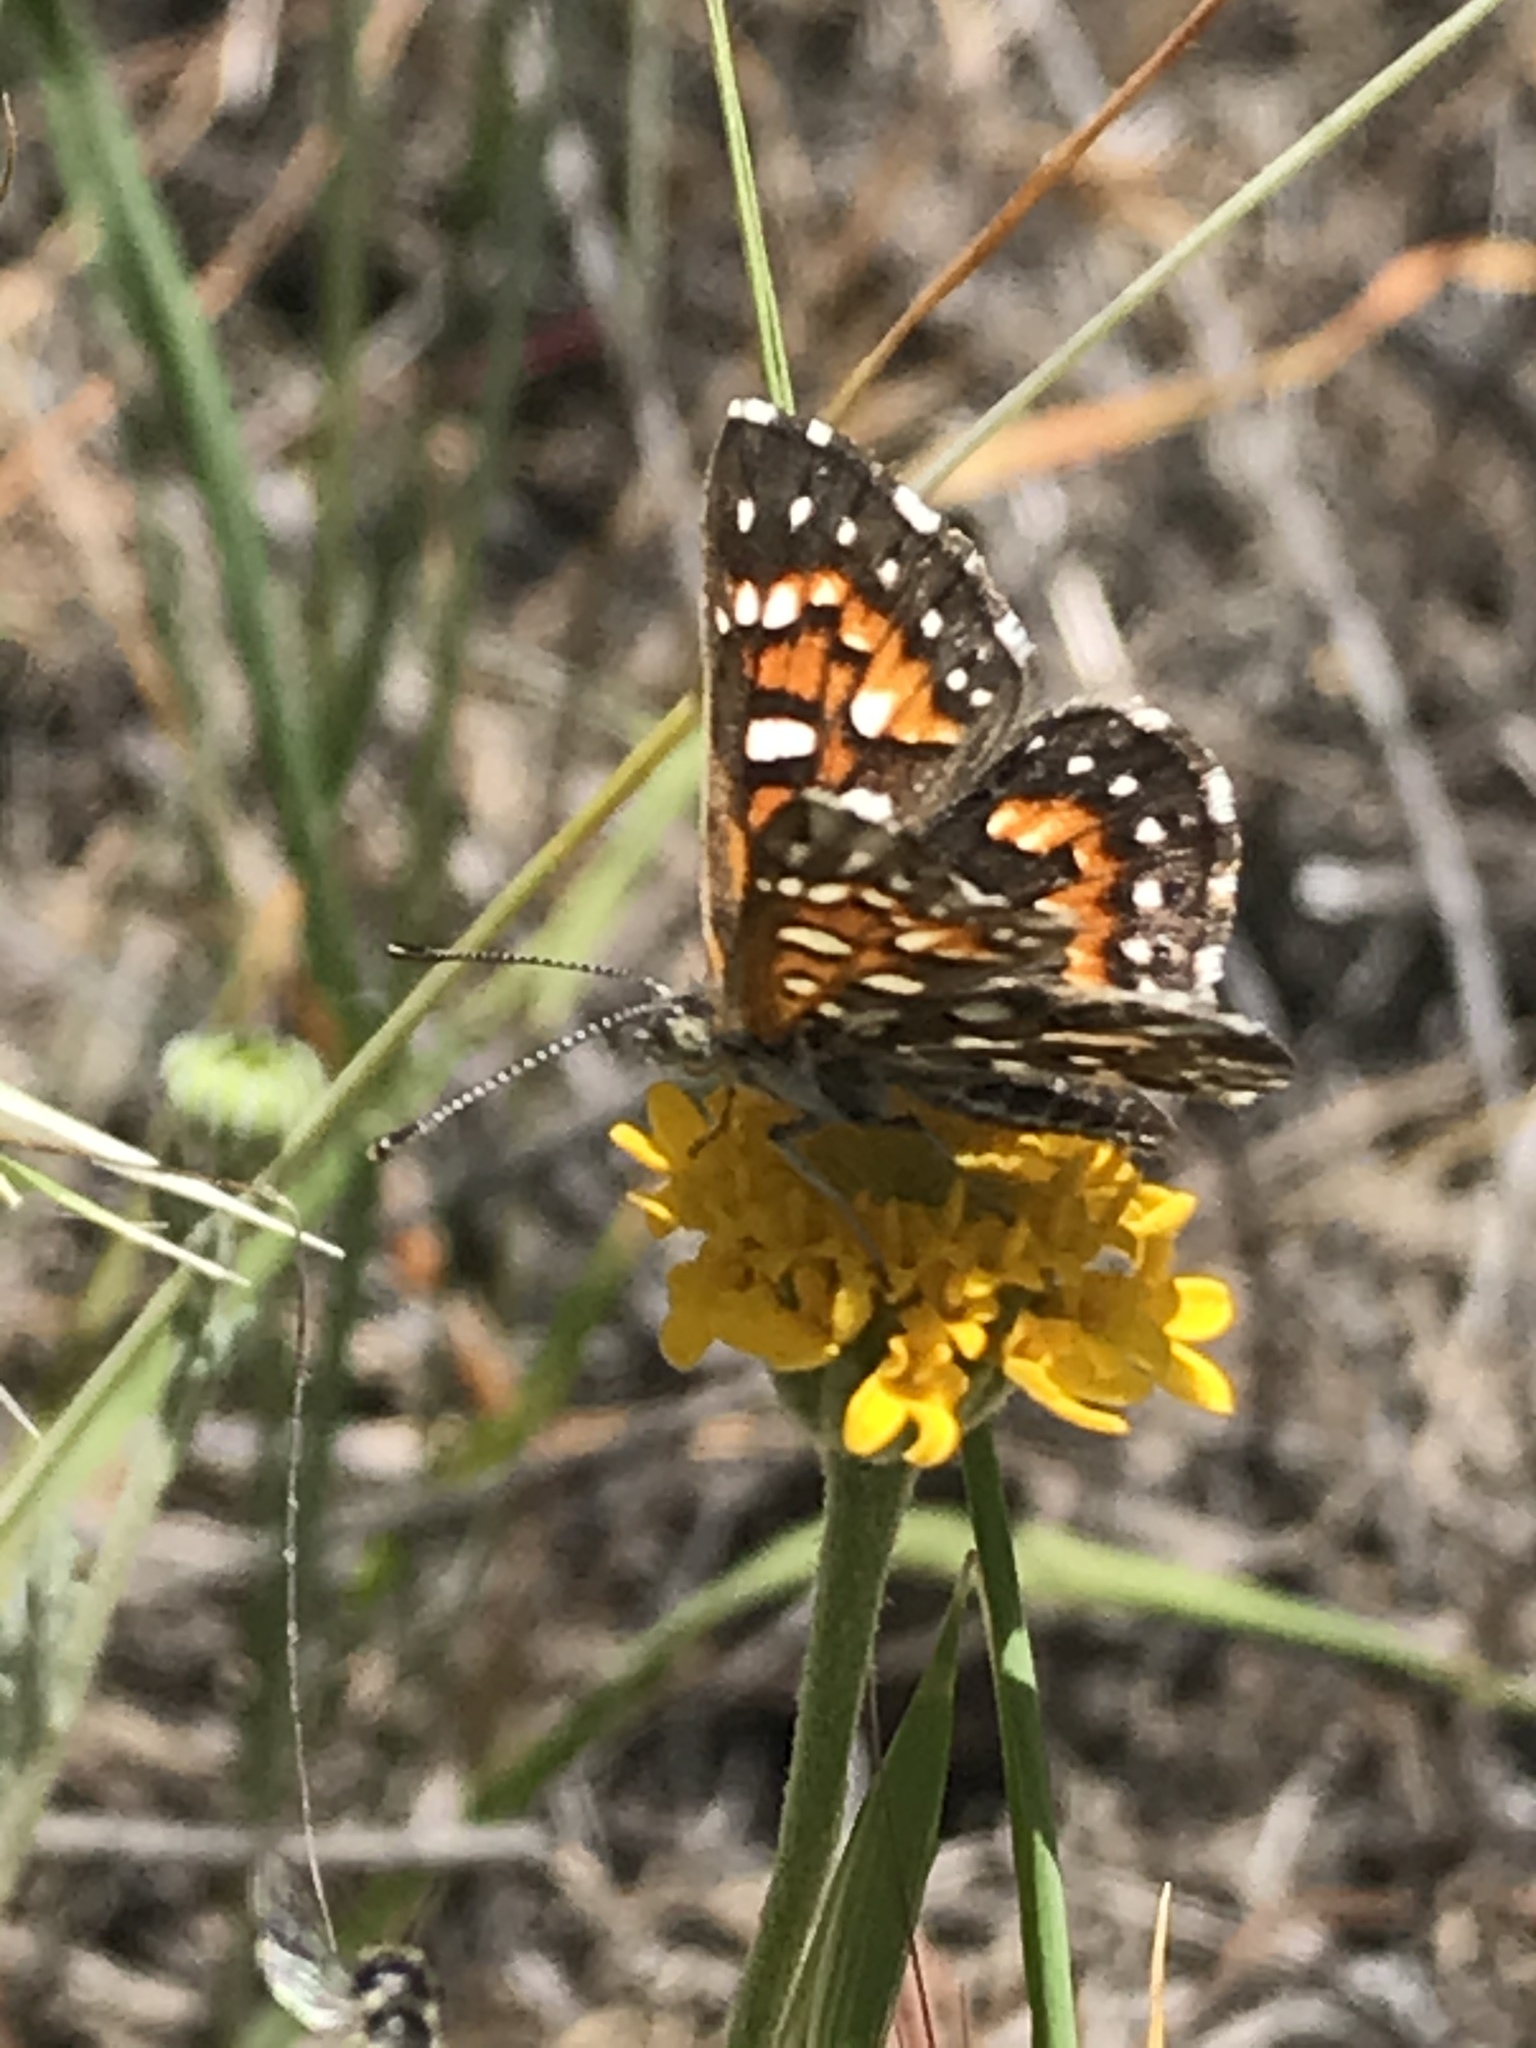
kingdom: Animalia
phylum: Arthropoda
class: Insecta
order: Lepidoptera
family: Riodinidae
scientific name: Riodinidae
